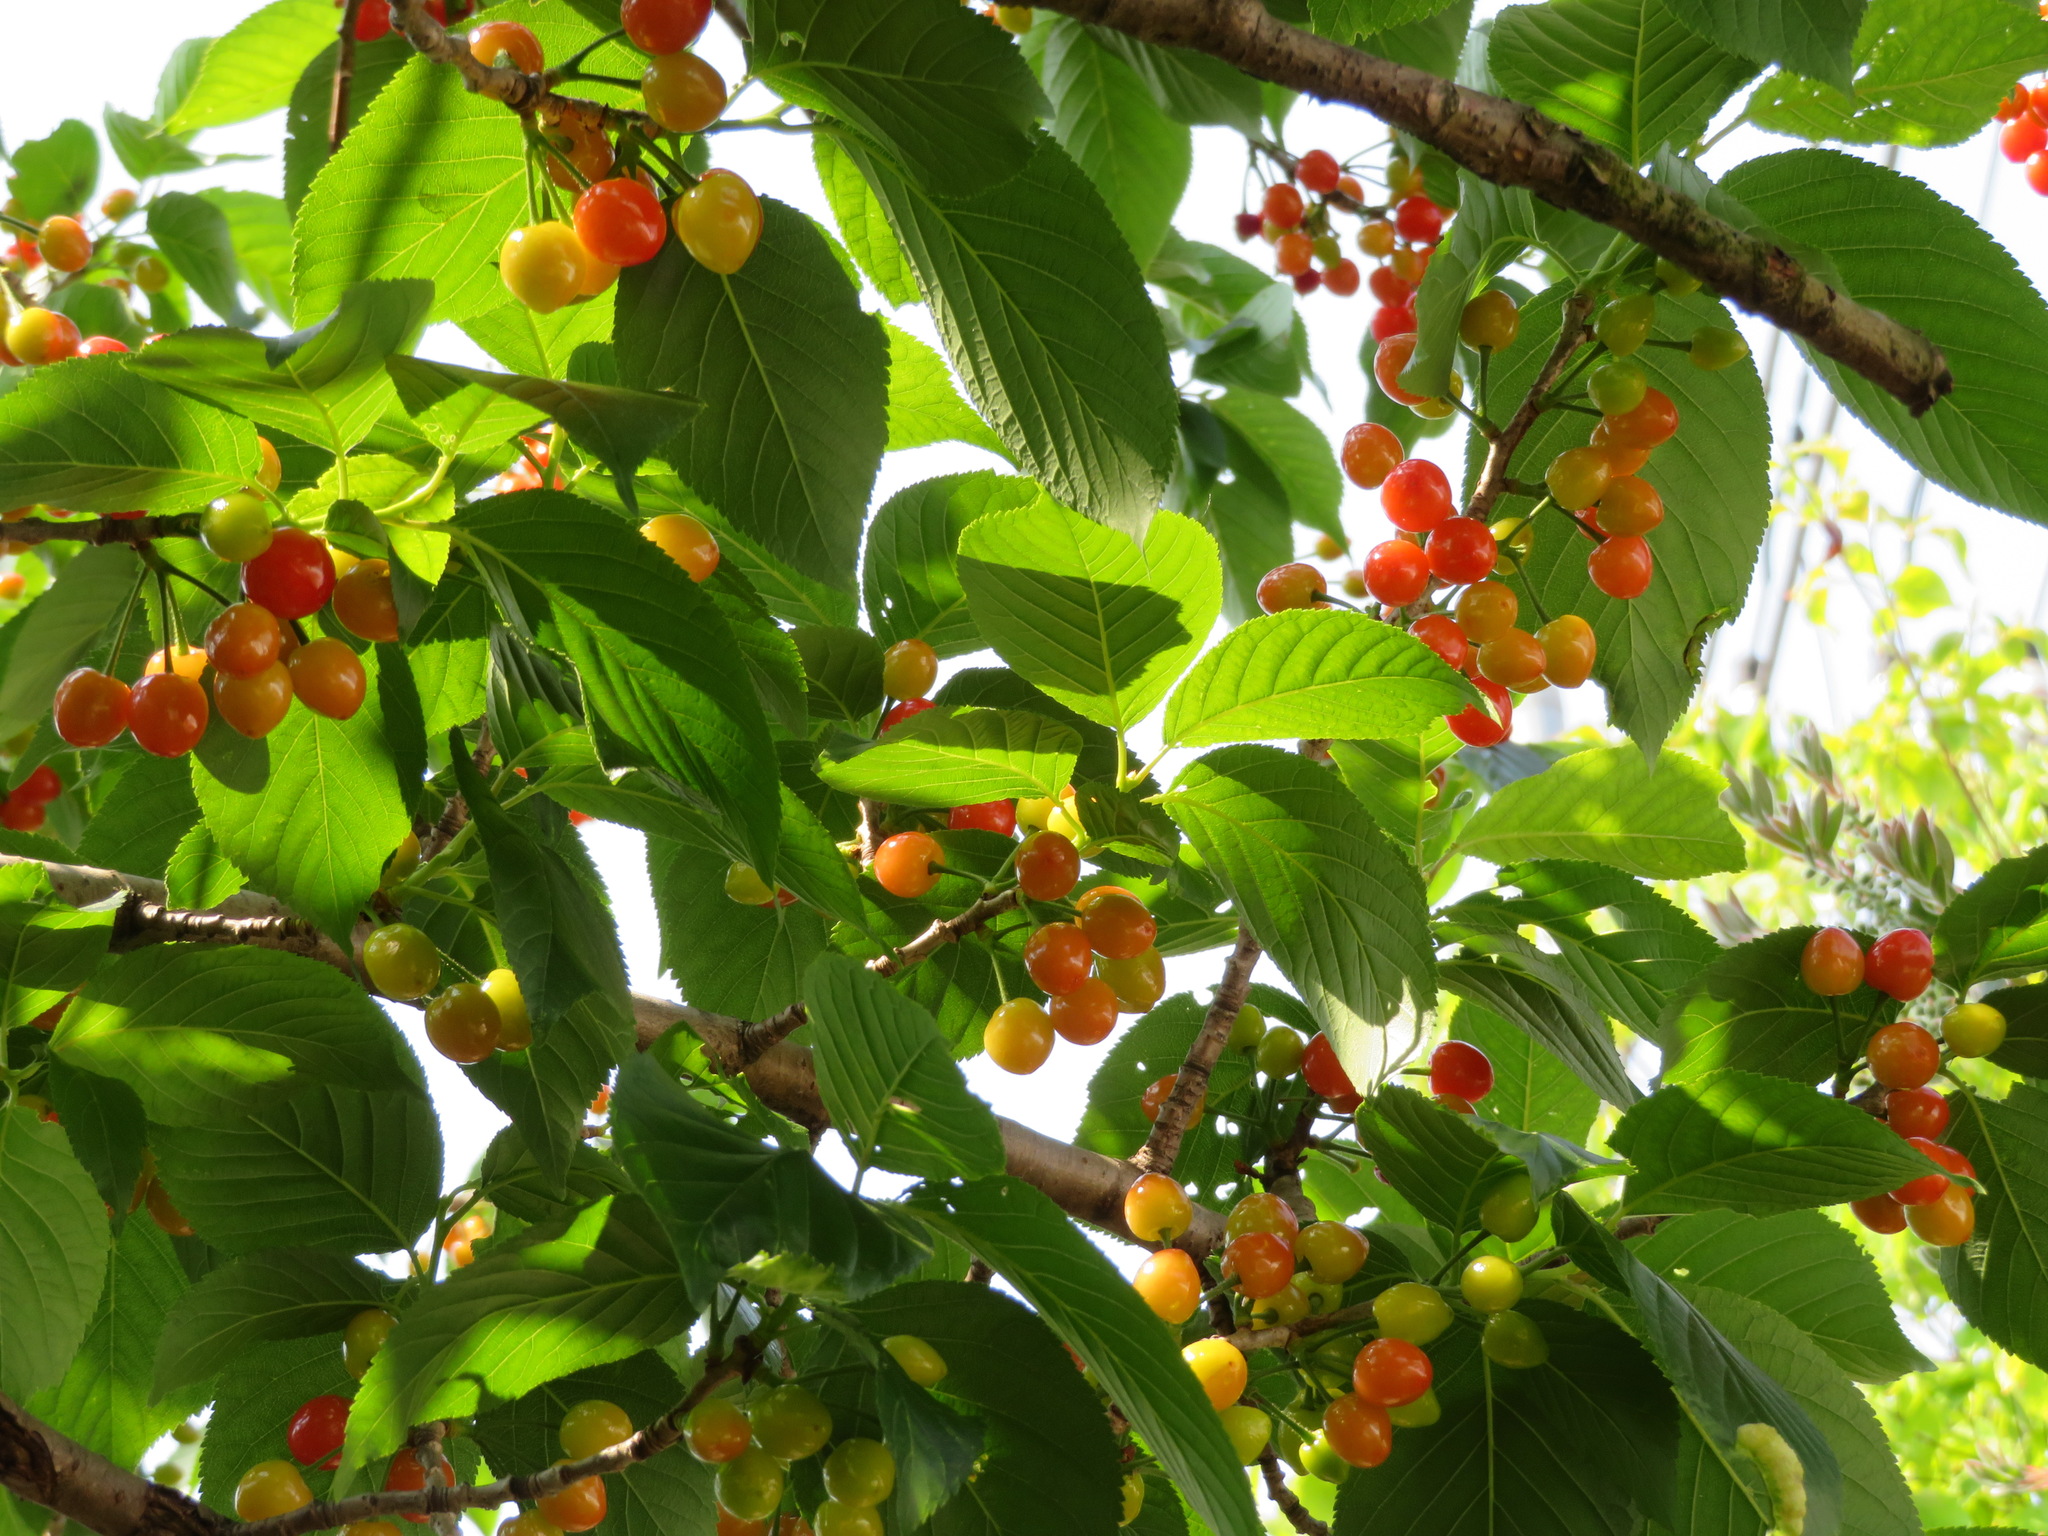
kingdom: Plantae
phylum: Tracheophyta
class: Magnoliopsida
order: Rosales
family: Rosaceae
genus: Prunus
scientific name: Prunus cerasus
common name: Morello cherry
